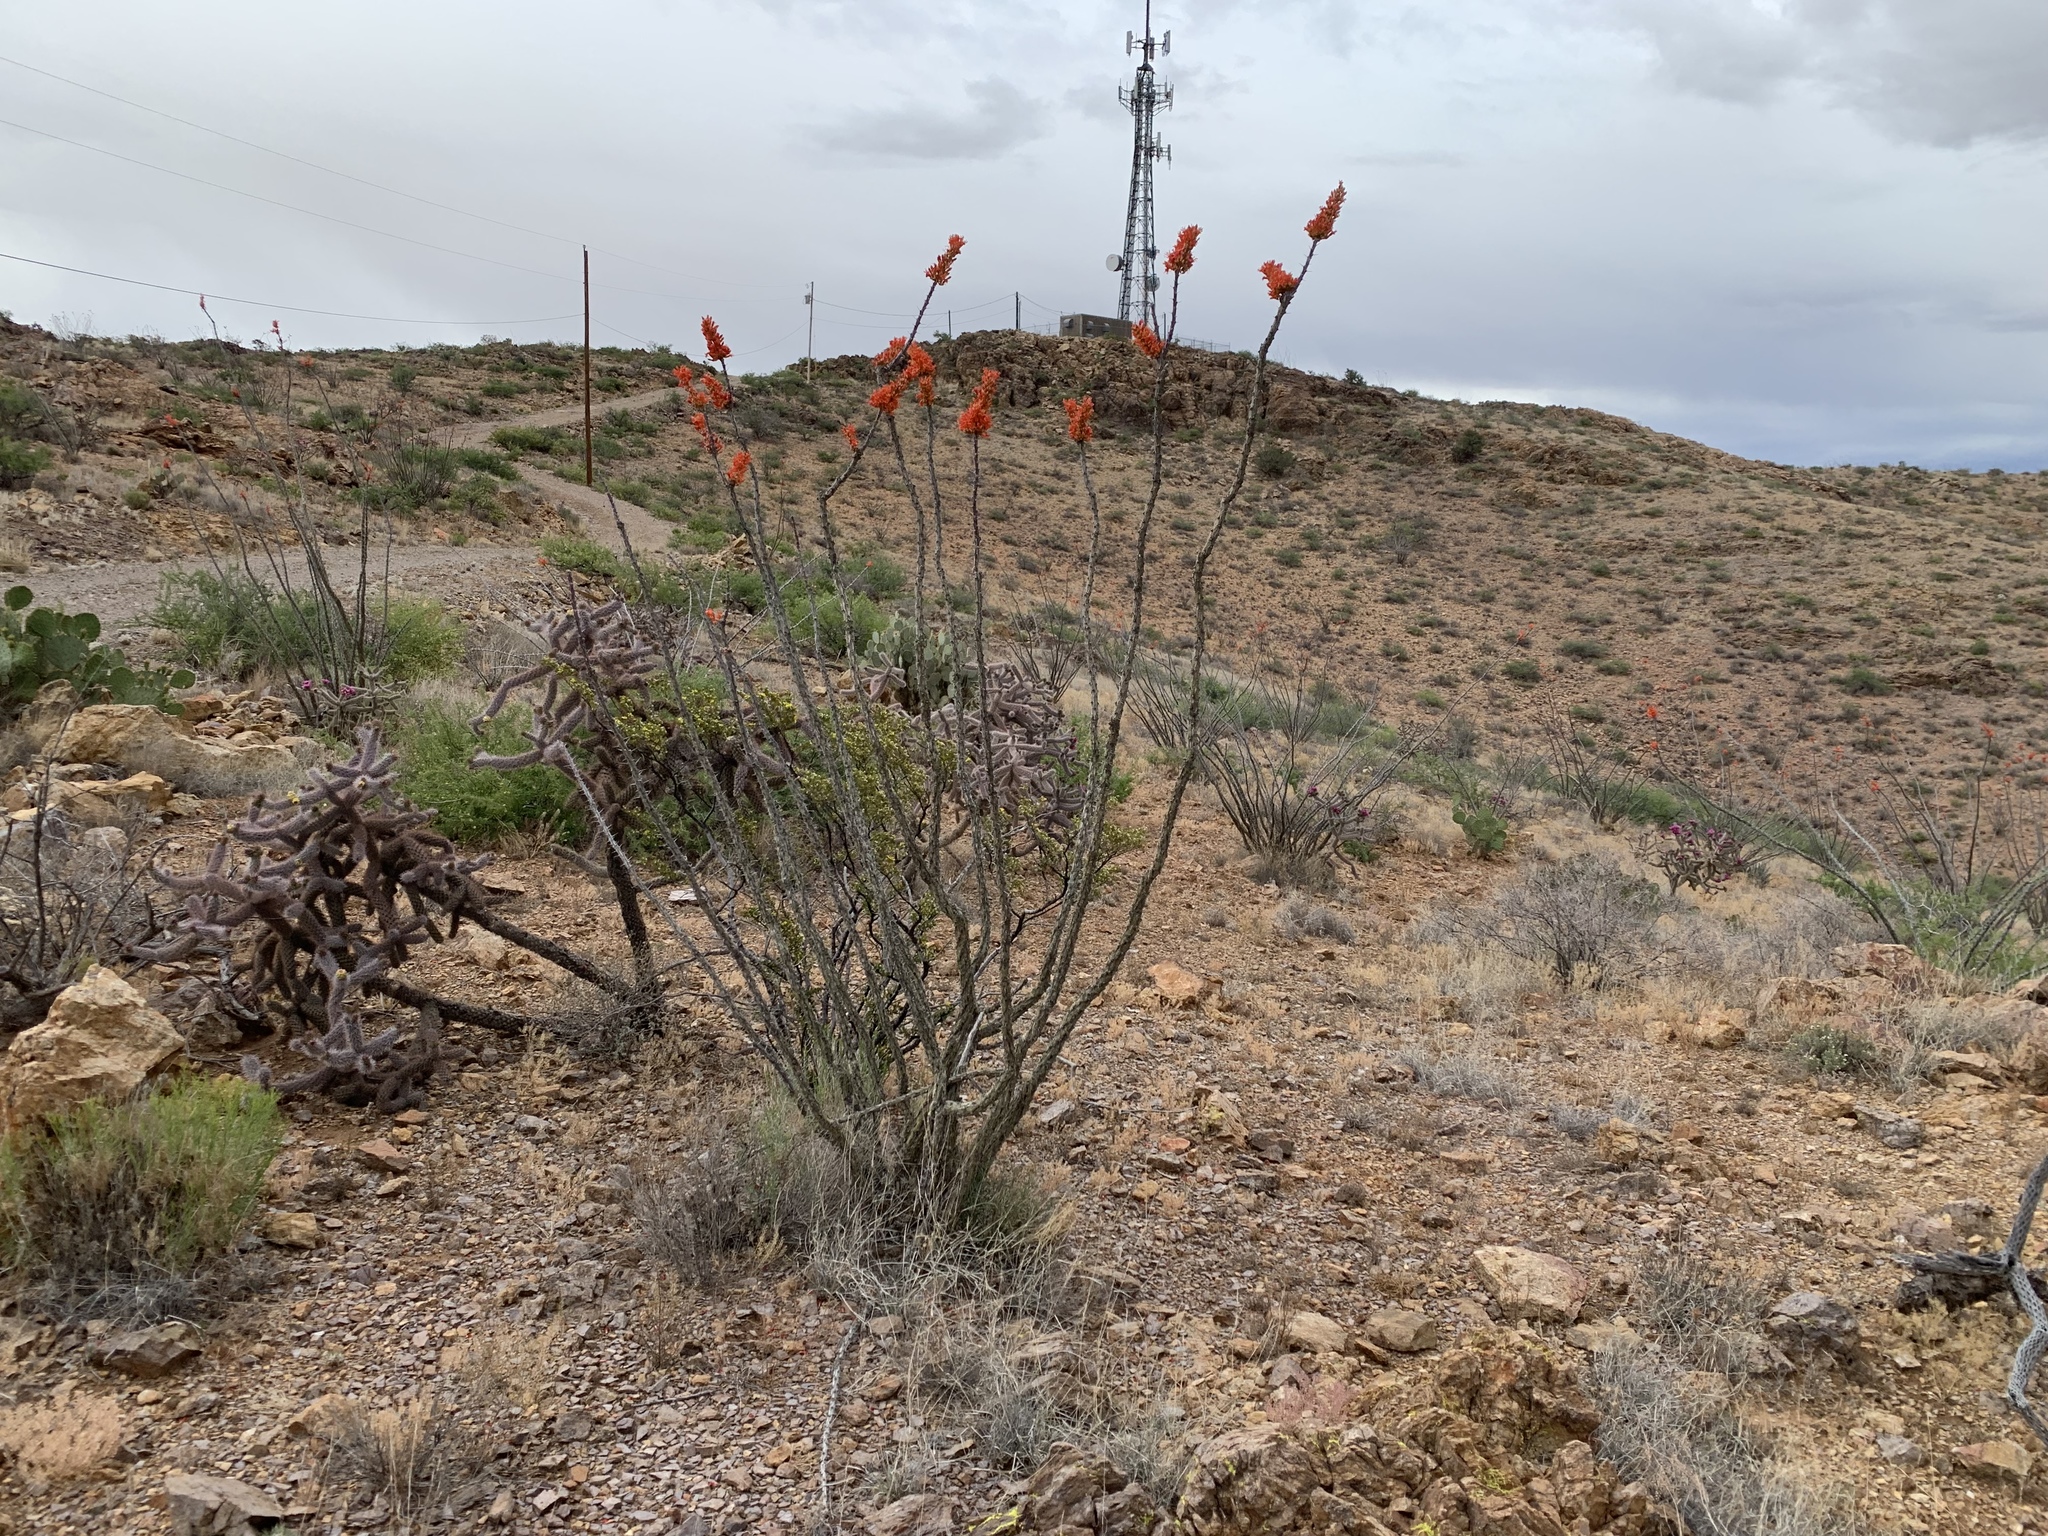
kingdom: Plantae
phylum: Tracheophyta
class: Magnoliopsida
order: Ericales
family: Fouquieriaceae
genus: Fouquieria
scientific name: Fouquieria splendens
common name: Vine-cactus
